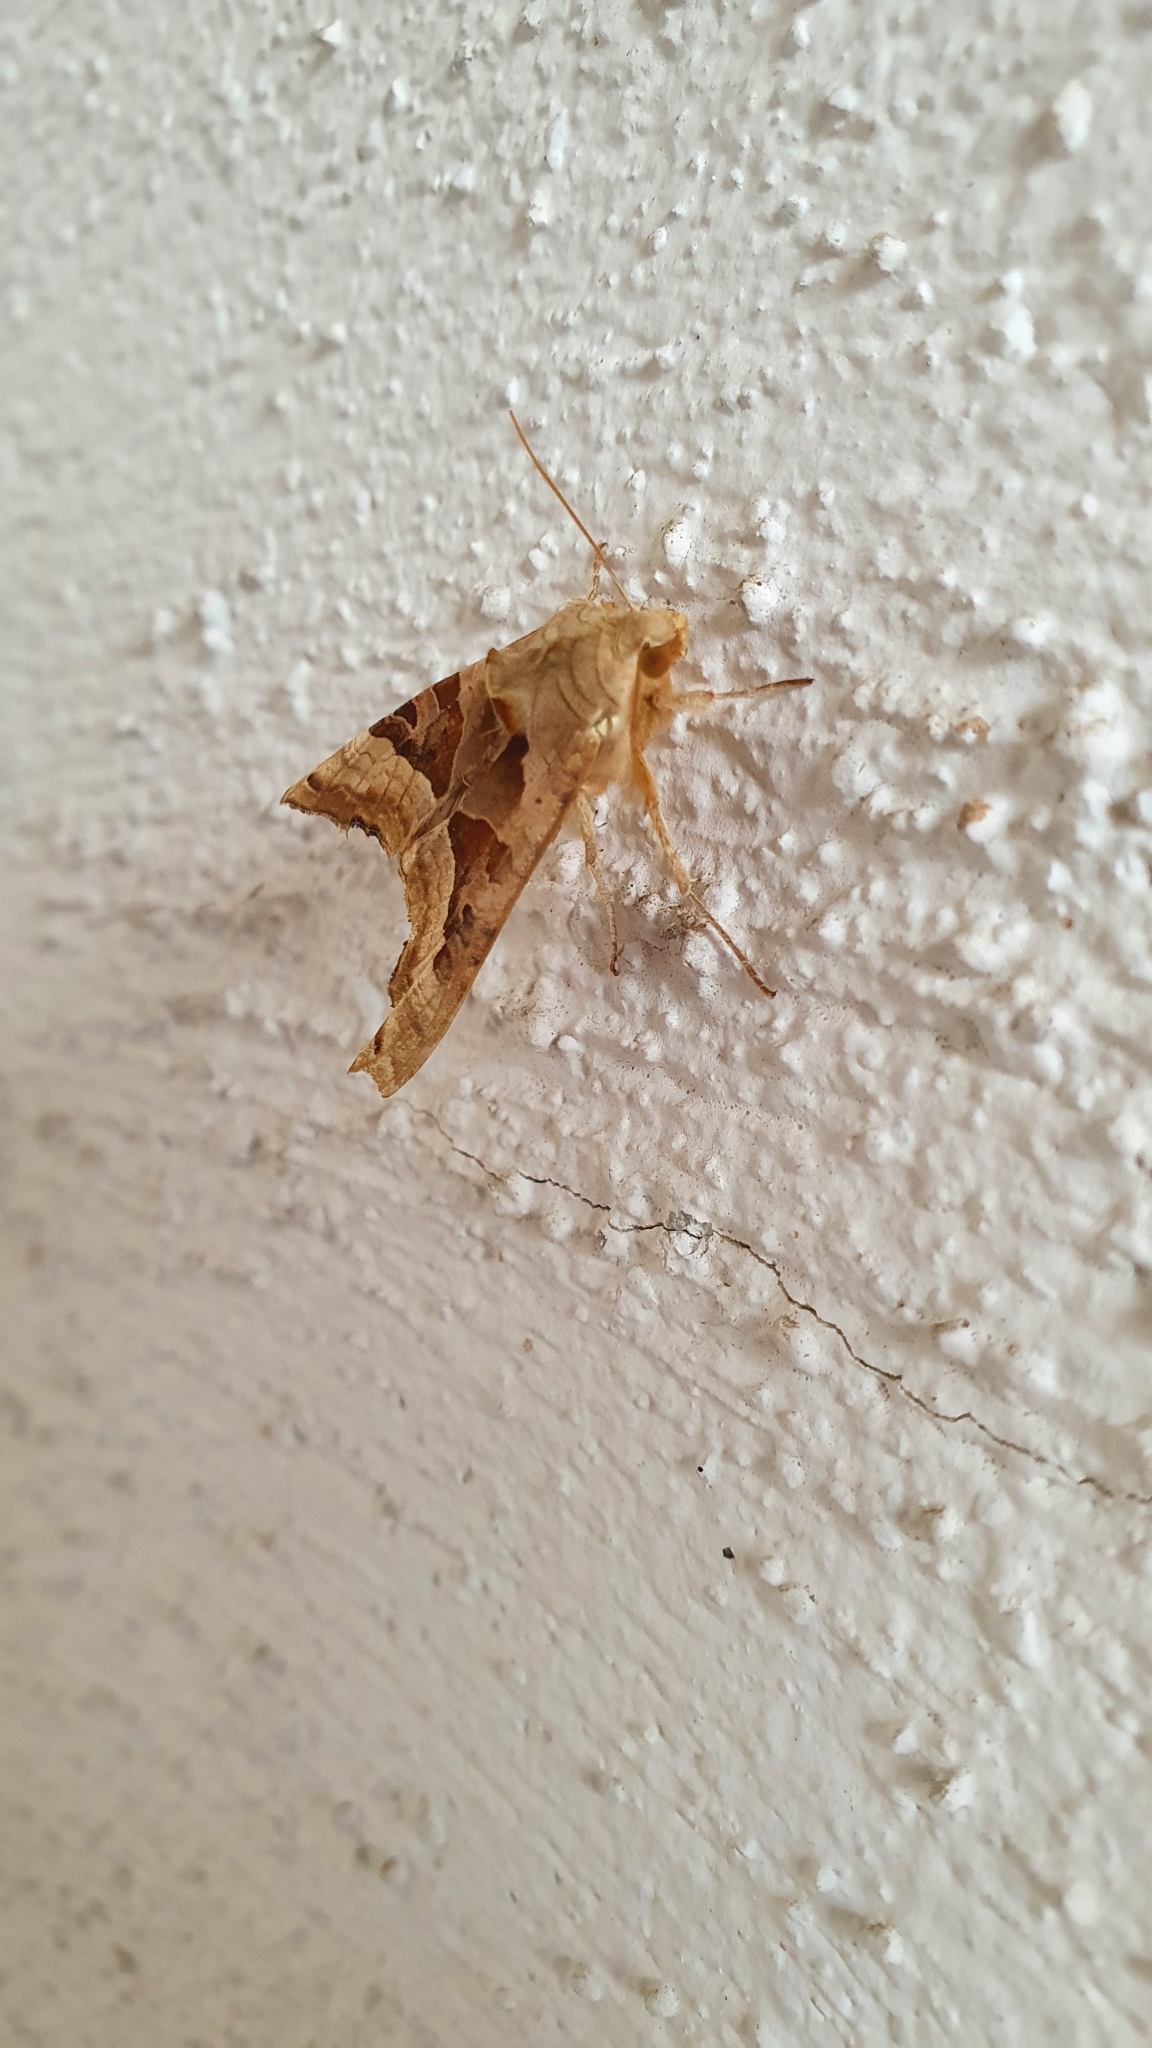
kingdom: Animalia
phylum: Arthropoda
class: Insecta
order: Lepidoptera
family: Noctuidae
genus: Phlogophora
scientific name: Phlogophora meticulosa
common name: Angle shades
